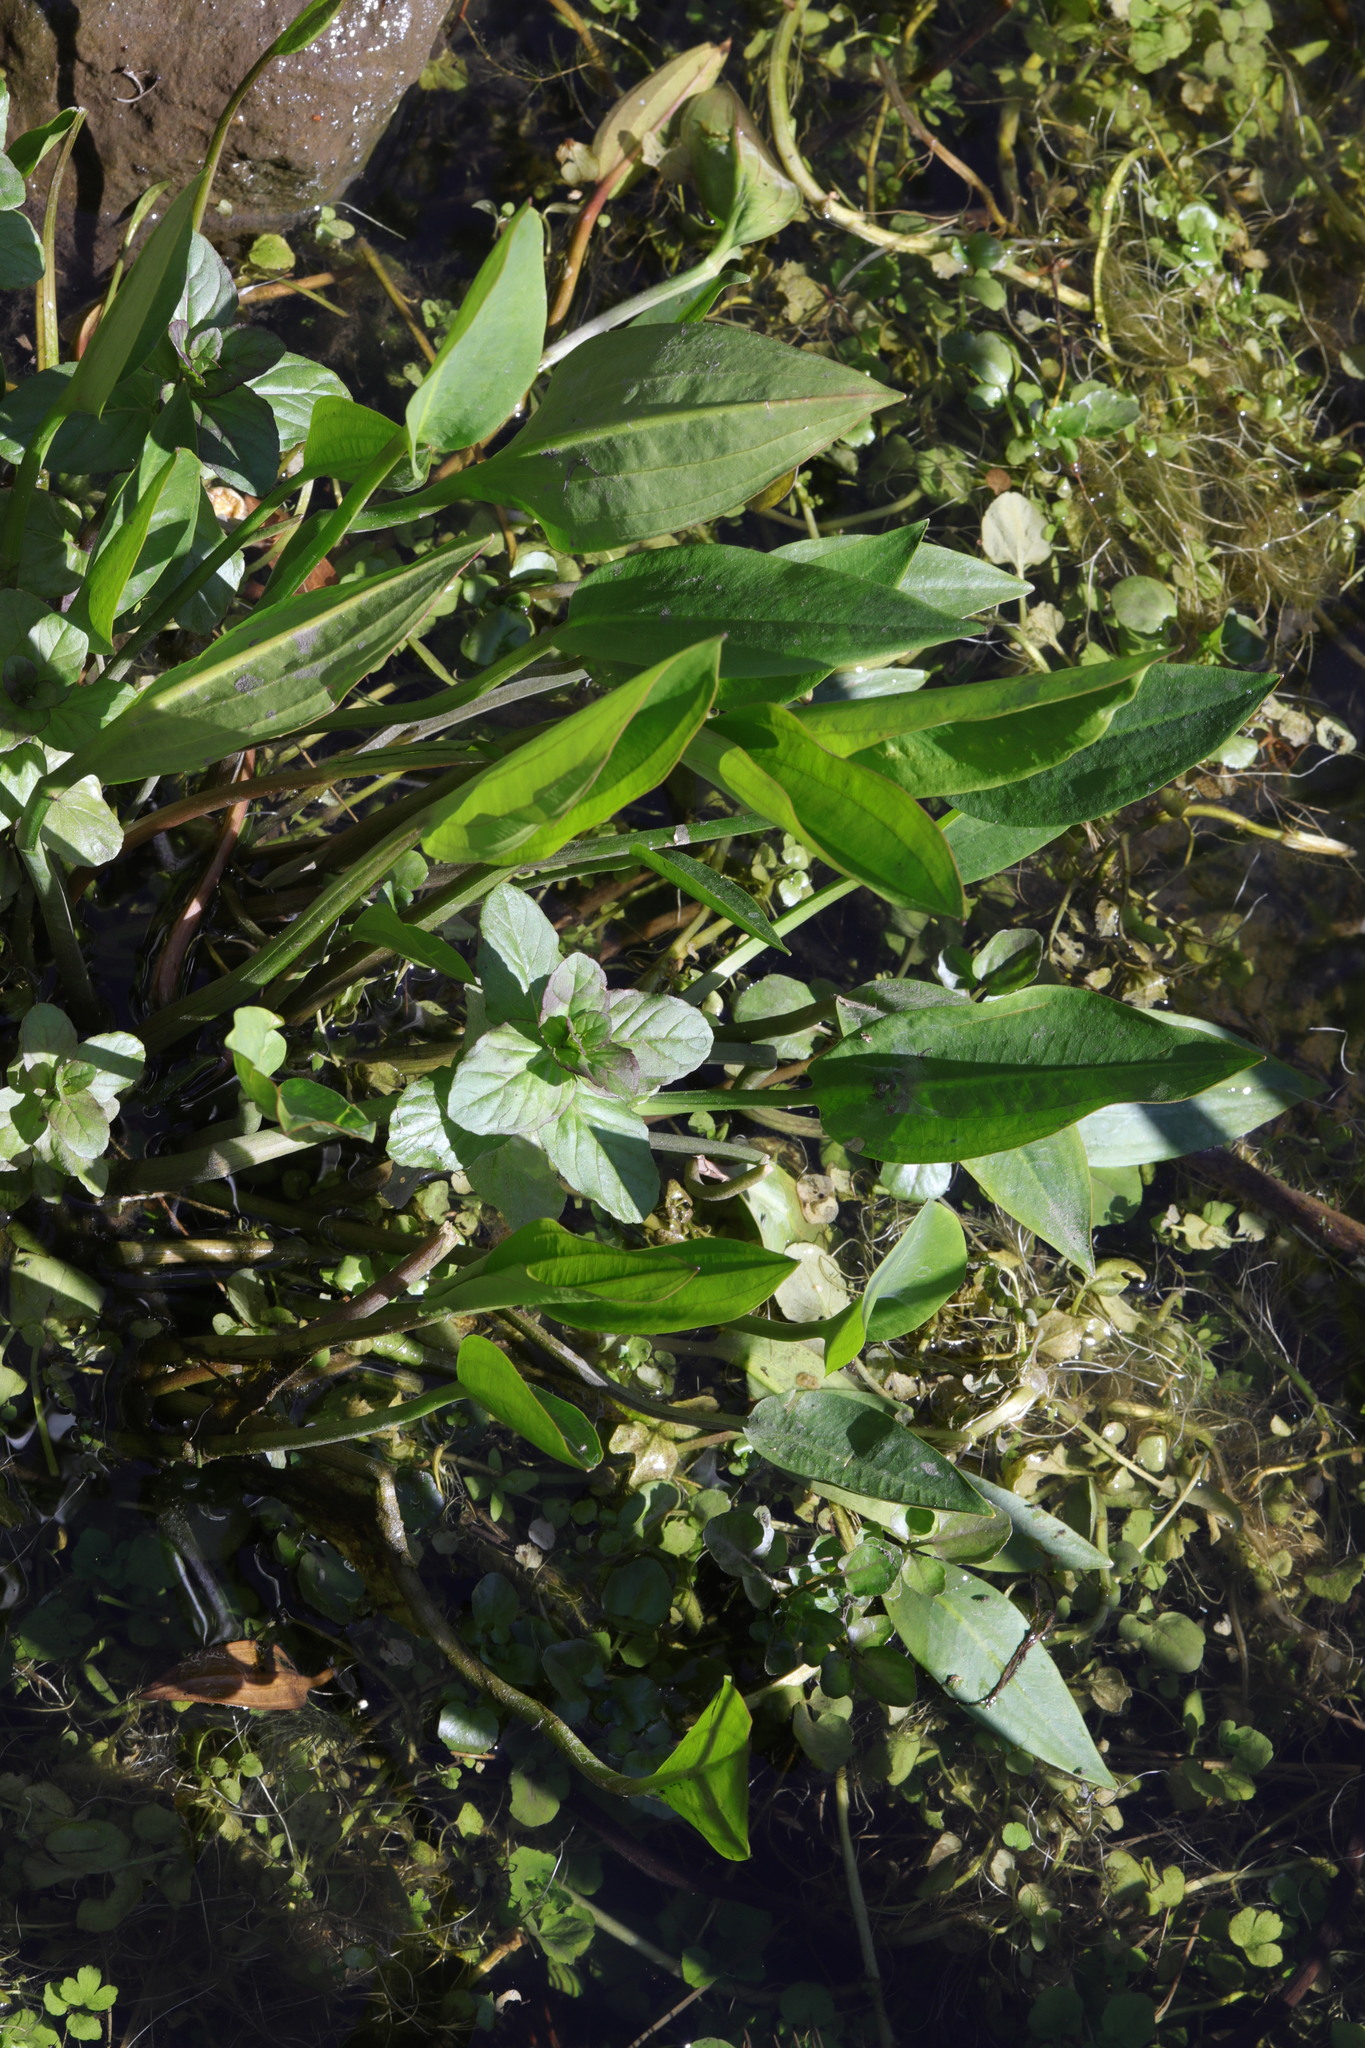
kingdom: Plantae
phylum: Tracheophyta
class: Liliopsida
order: Alismatales
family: Alismataceae
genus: Alisma
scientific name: Alisma plantago-aquatica
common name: Water-plantain
